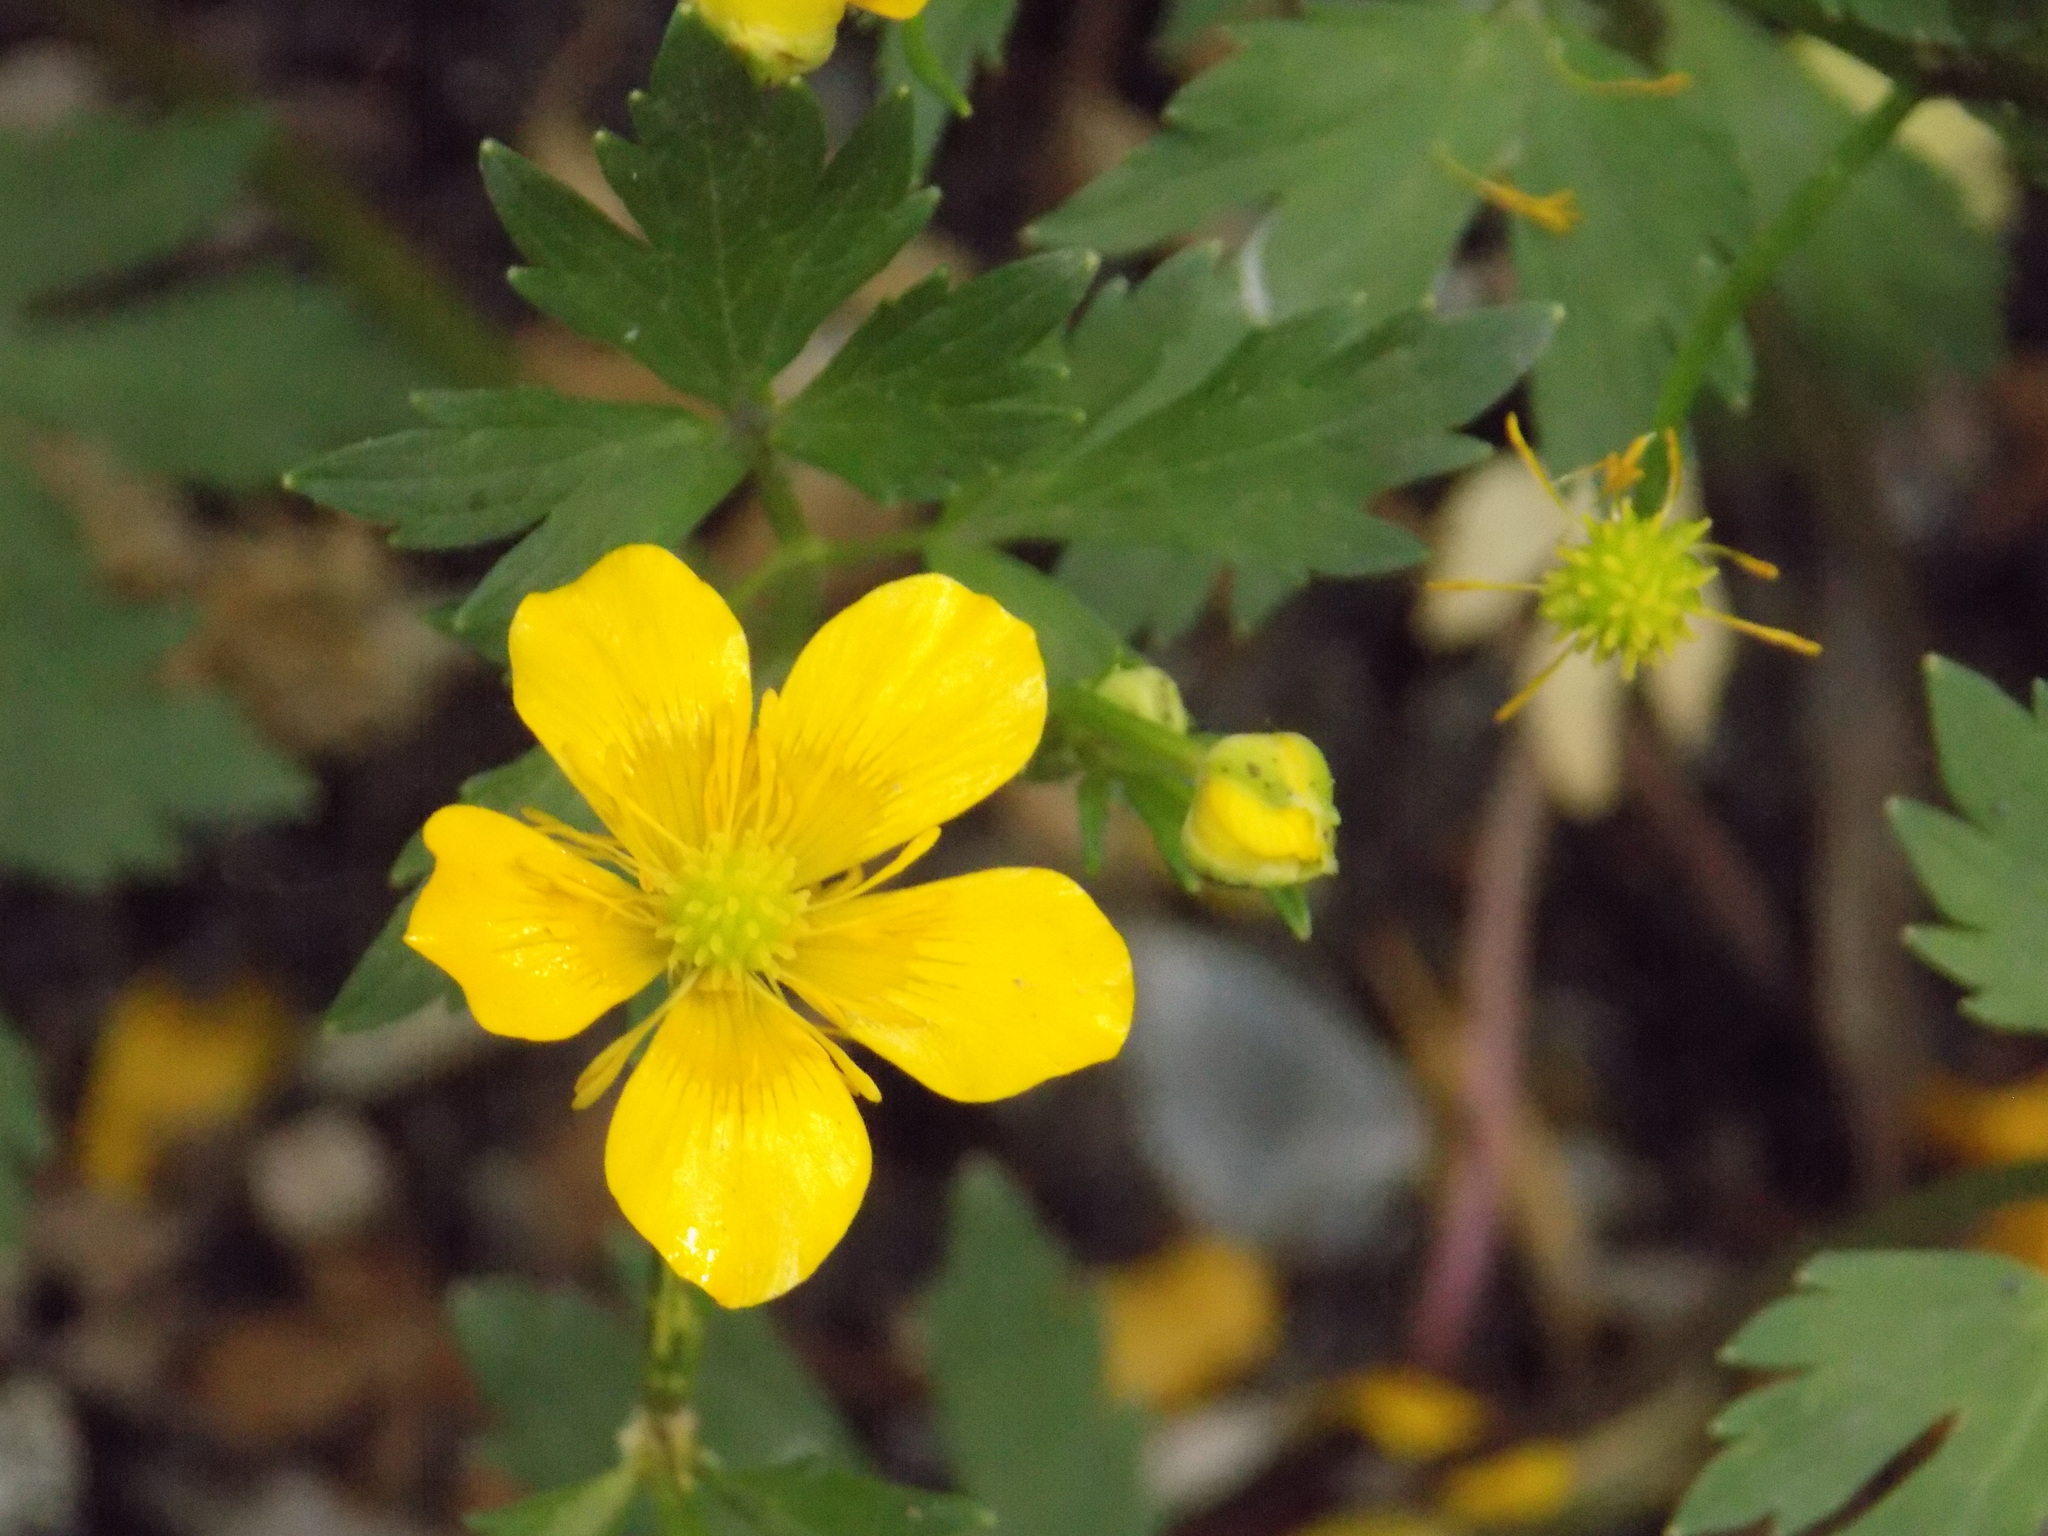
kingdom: Plantae
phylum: Tracheophyta
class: Magnoliopsida
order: Ranunculales
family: Ranunculaceae
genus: Ranunculus
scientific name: Ranunculus repens
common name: Creeping buttercup
